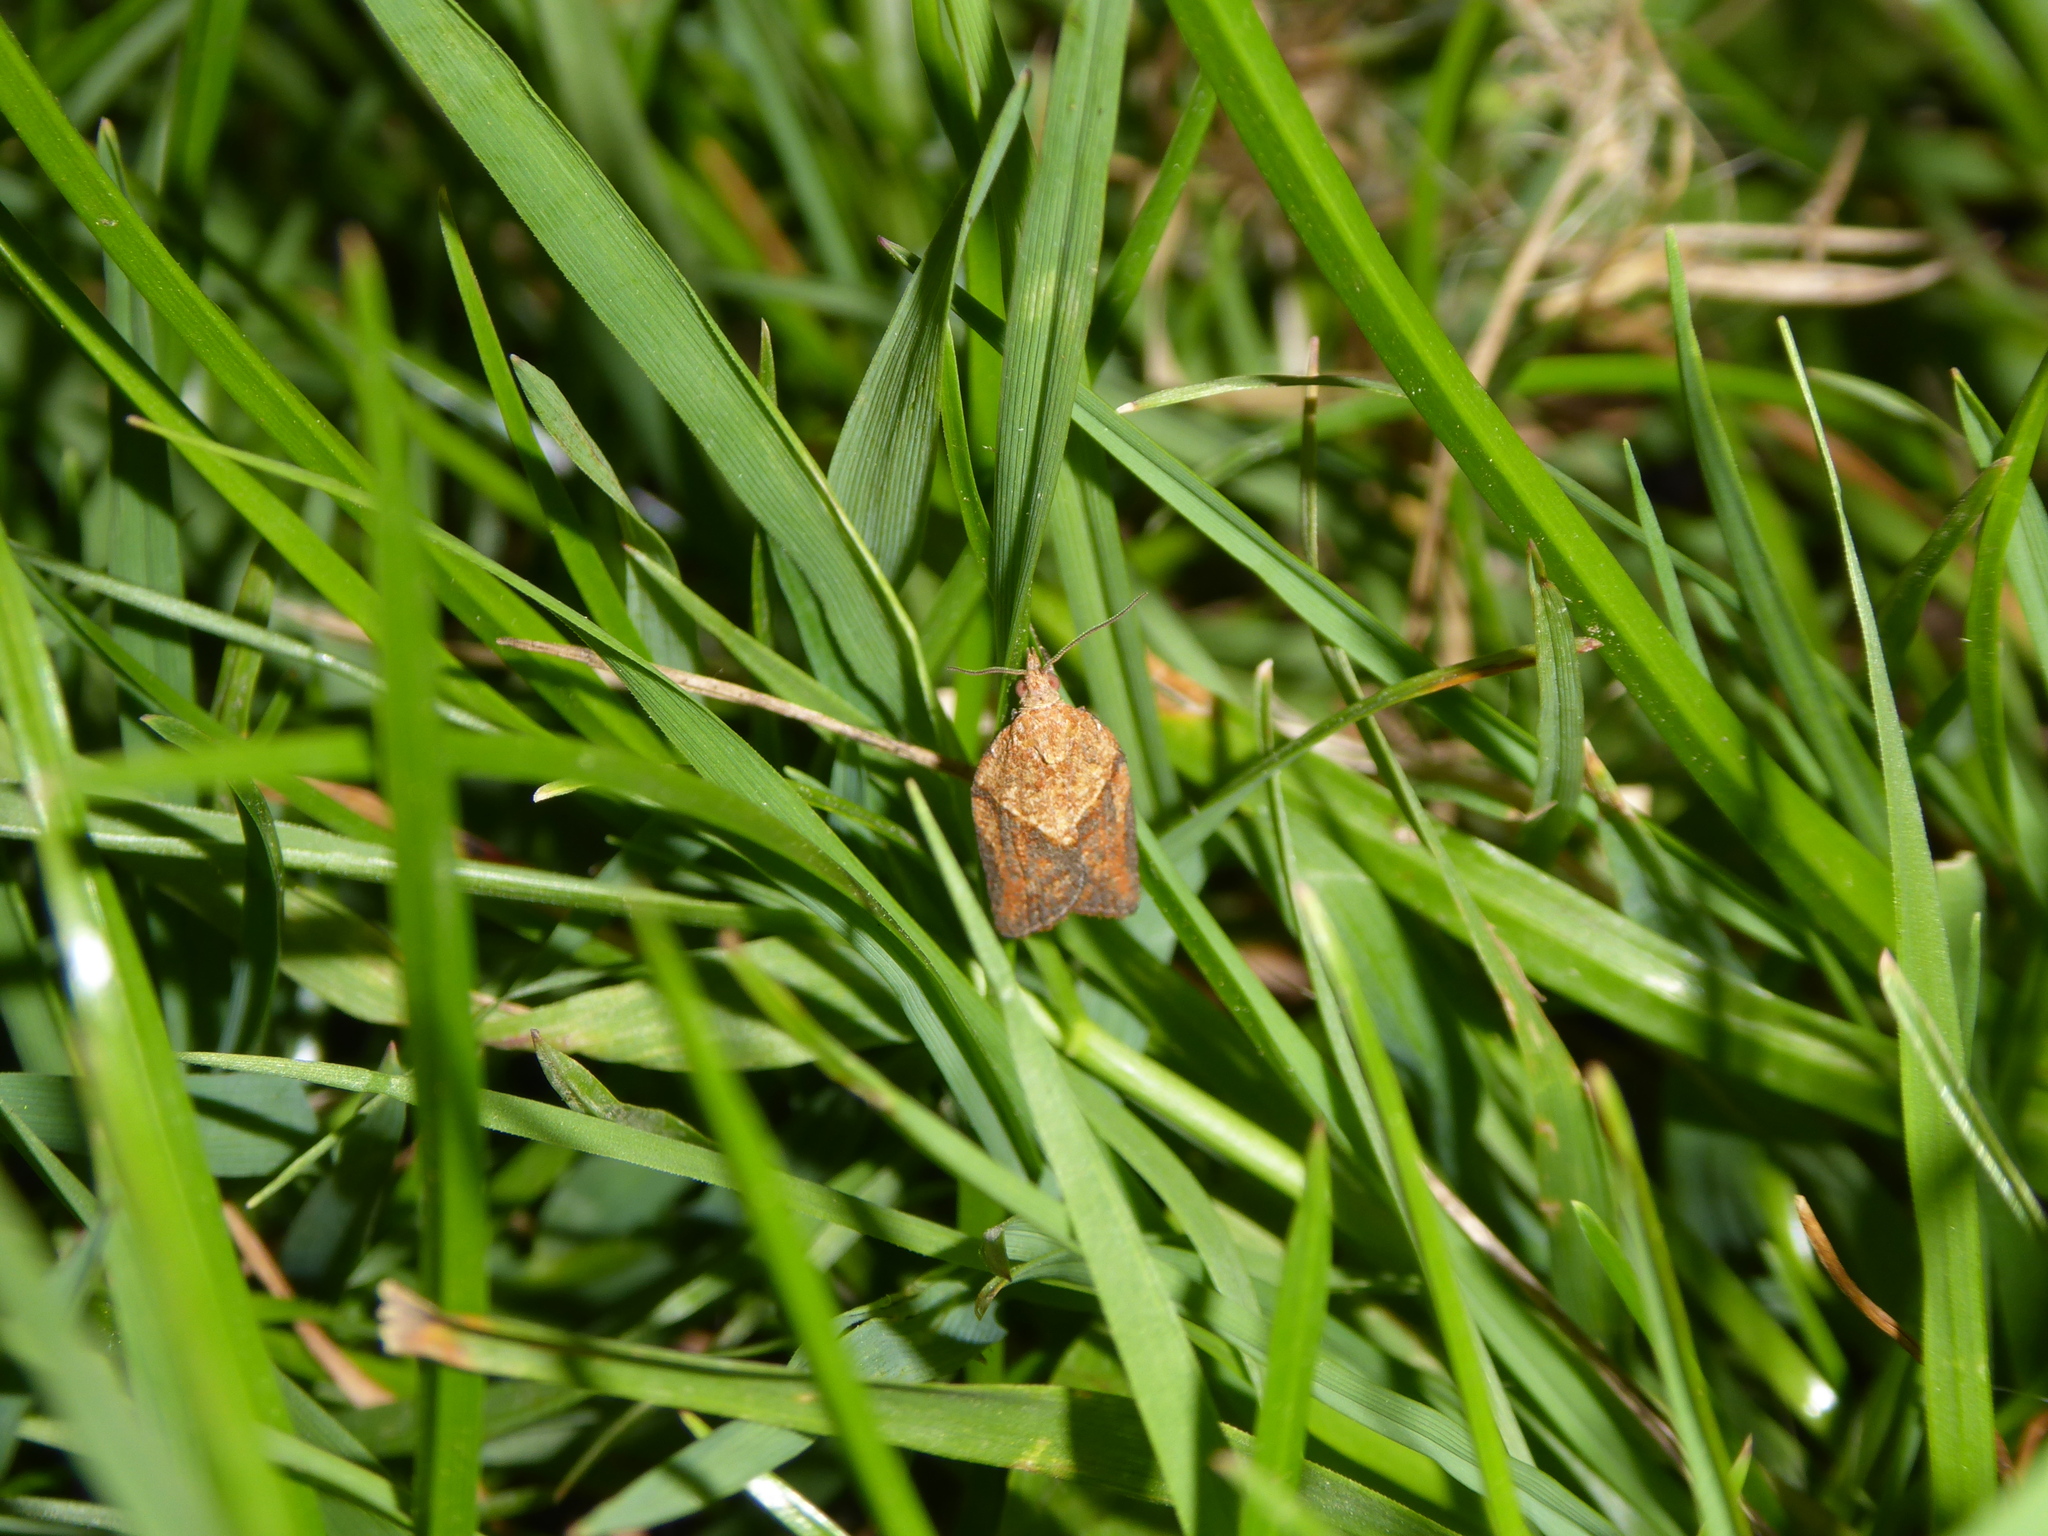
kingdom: Animalia
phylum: Arthropoda
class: Insecta
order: Lepidoptera
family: Tortricidae
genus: Epiphyas
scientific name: Epiphyas postvittana
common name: Light brown apple moth
